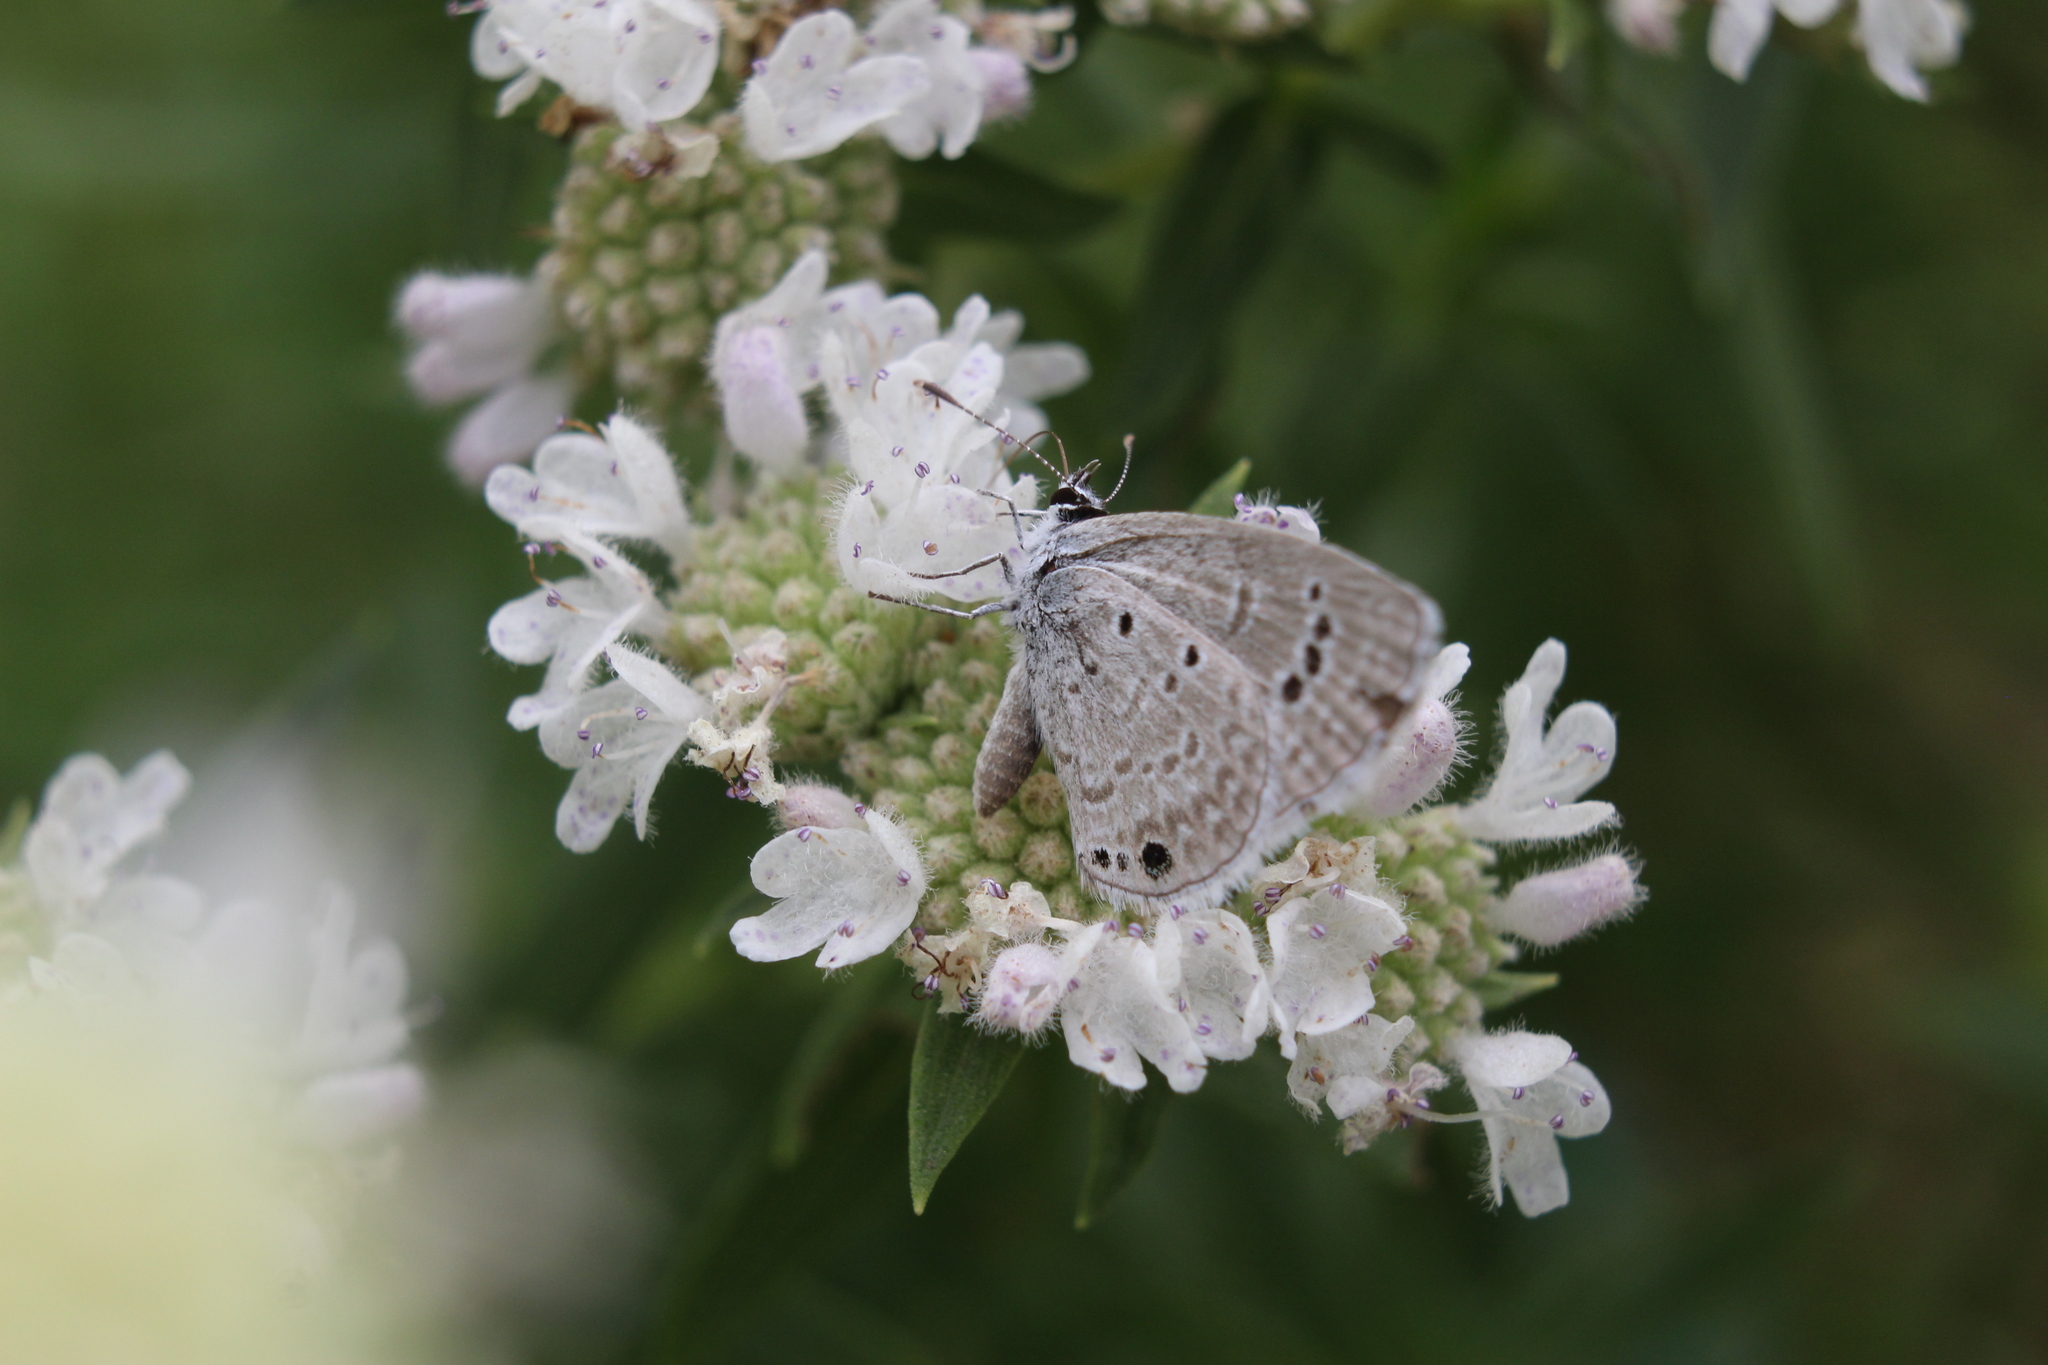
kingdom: Animalia
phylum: Arthropoda
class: Insecta
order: Lepidoptera
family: Lycaenidae
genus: Echinargus
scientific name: Echinargus isola
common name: Reakirt's blue
